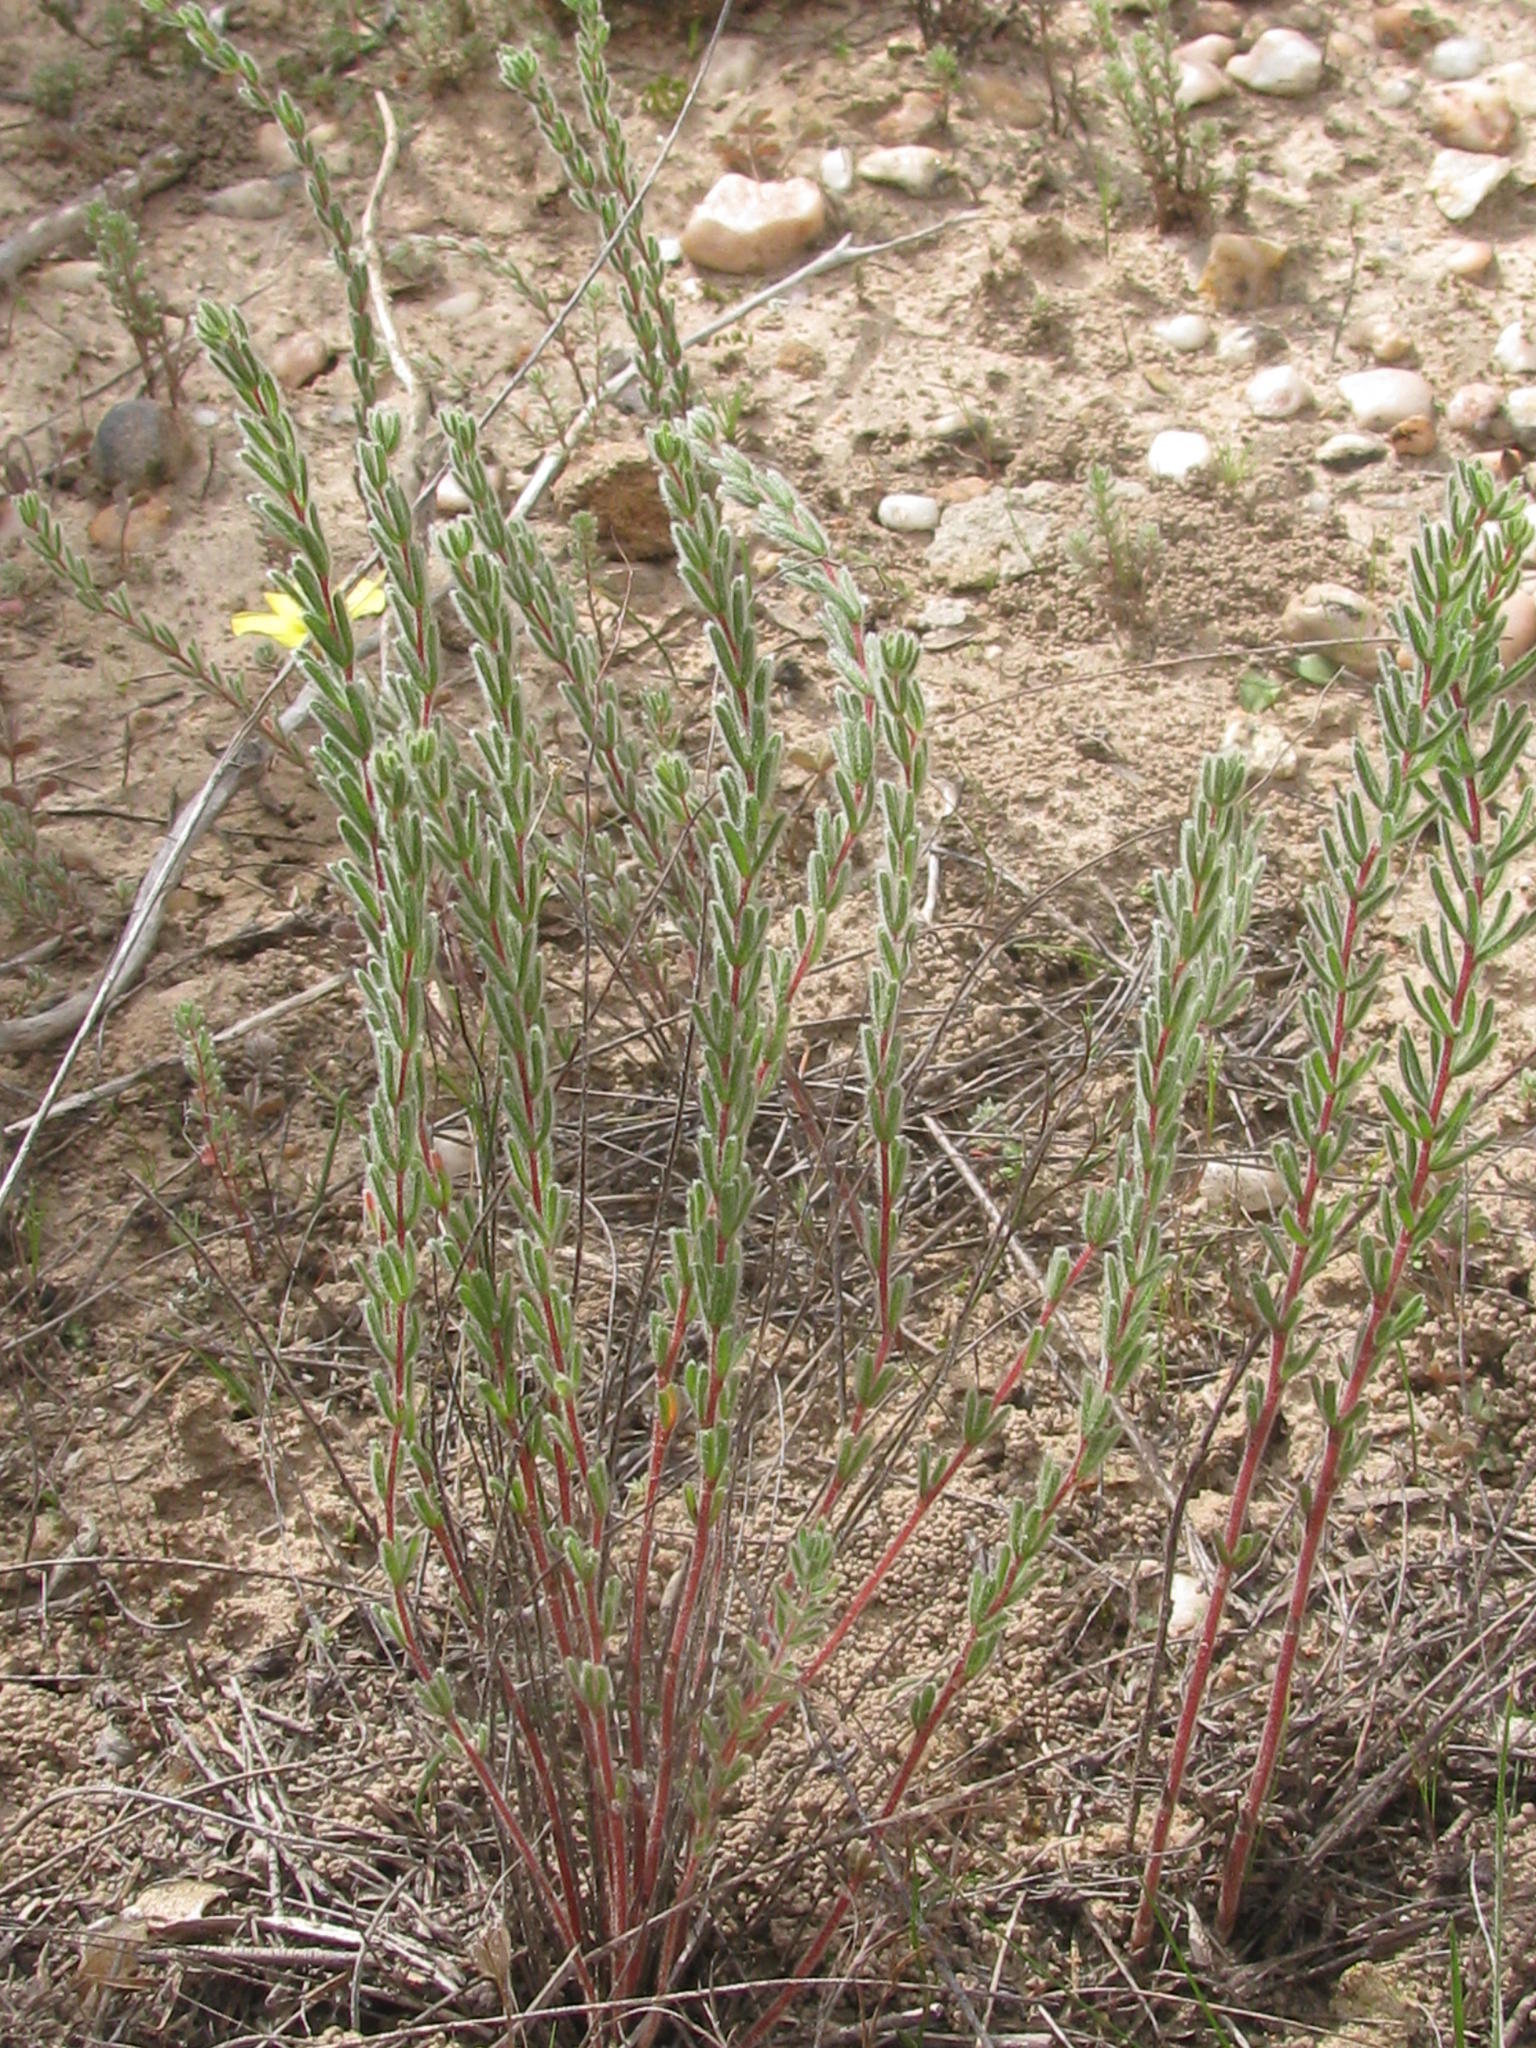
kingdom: Plantae
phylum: Tracheophyta
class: Magnoliopsida
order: Oxalidales
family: Oxalidaceae
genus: Oxalis
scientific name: Oxalis massoniana
